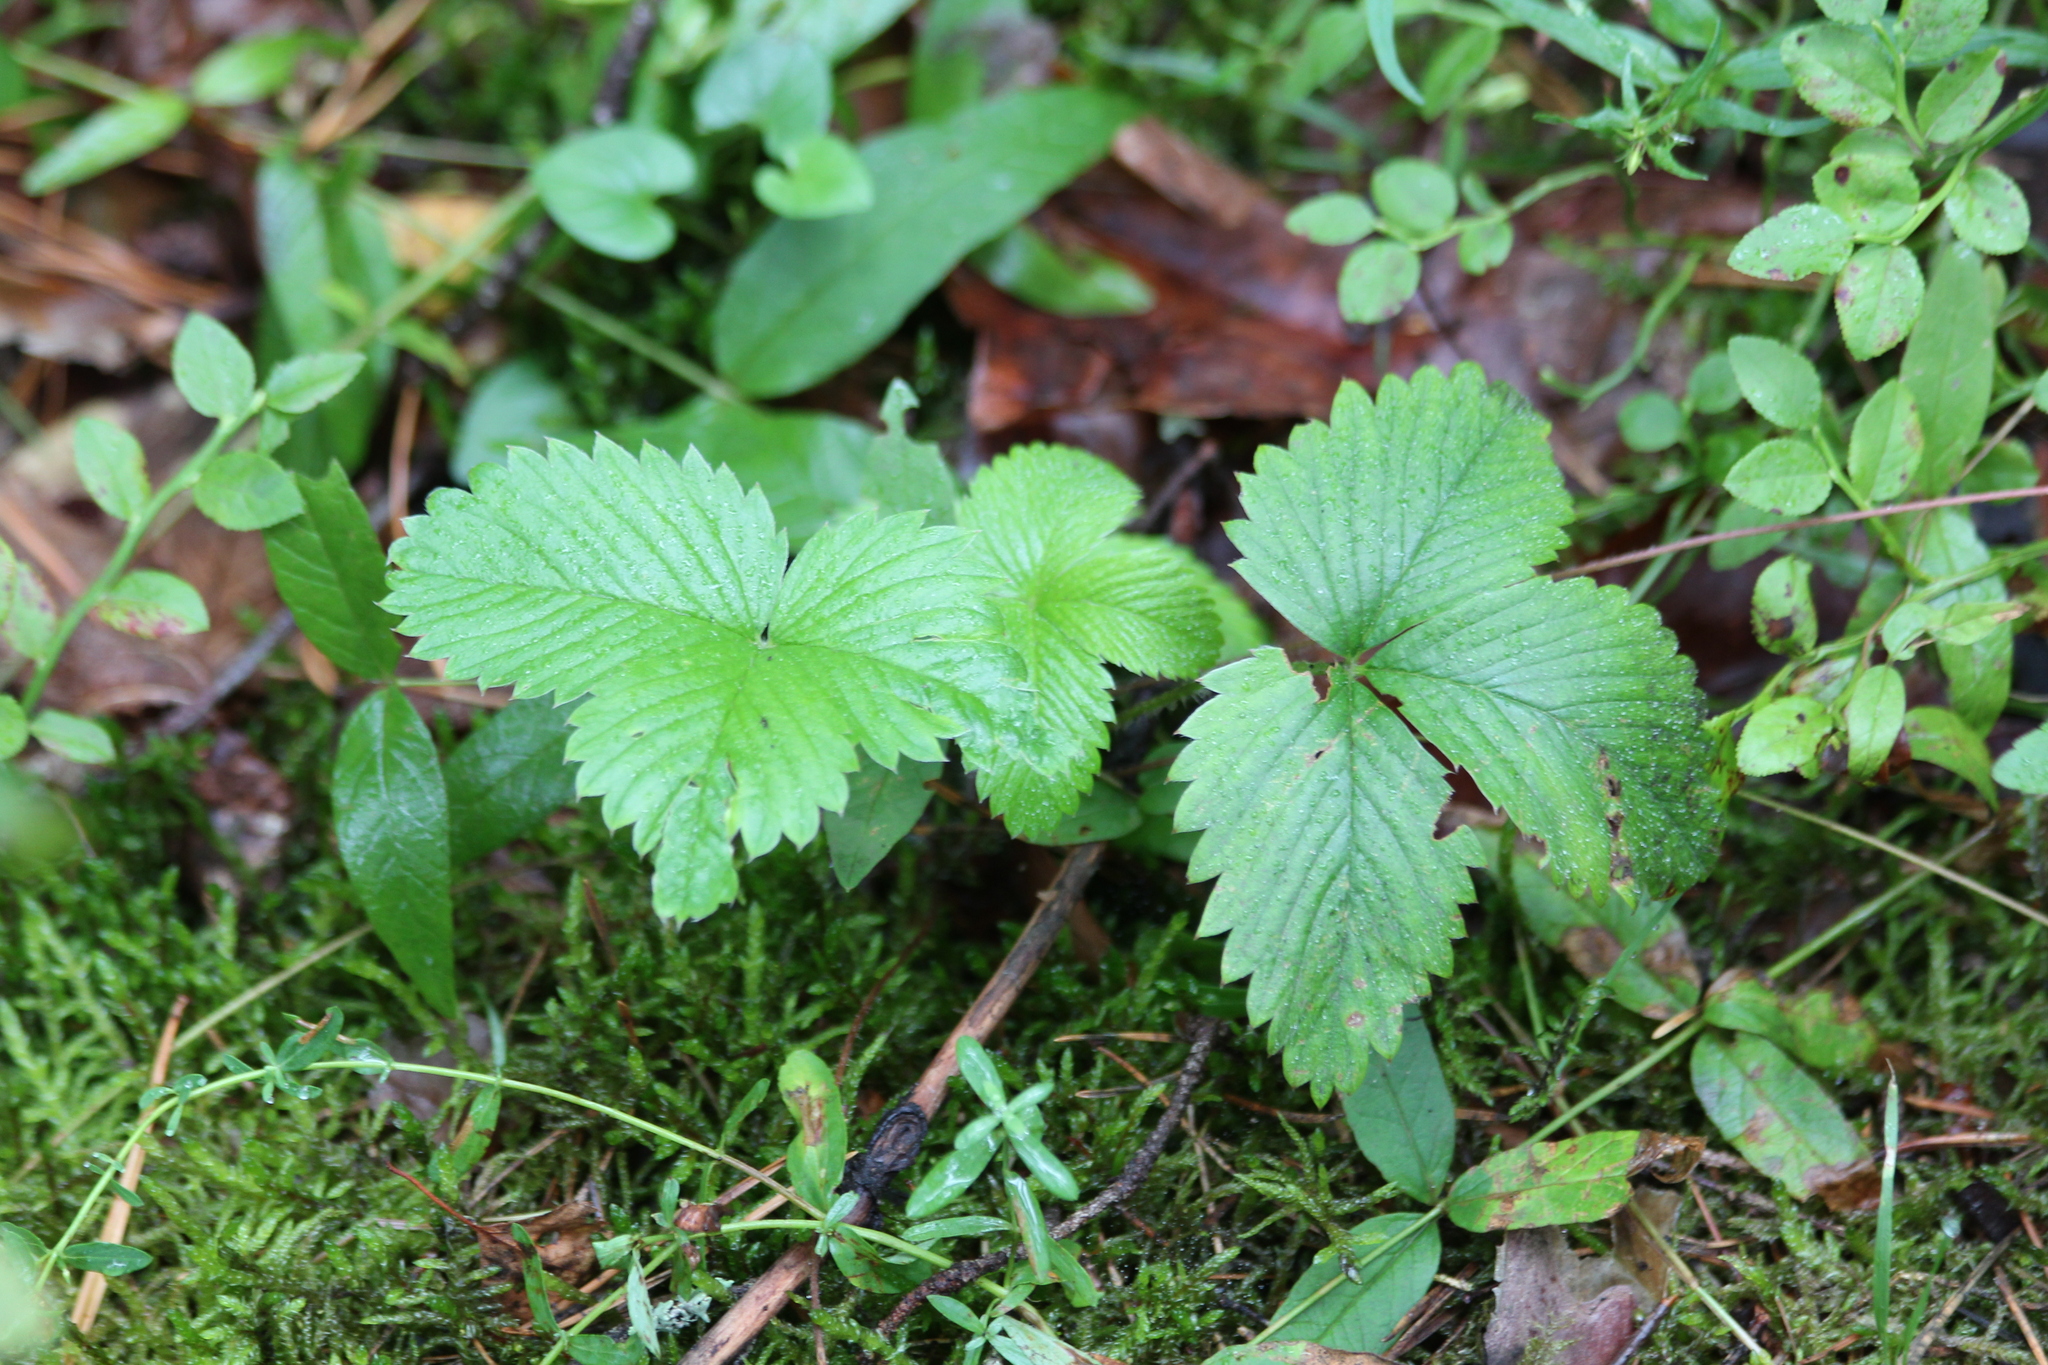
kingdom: Plantae
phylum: Tracheophyta
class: Magnoliopsida
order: Rosales
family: Rosaceae
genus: Fragaria
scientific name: Fragaria vesca
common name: Wild strawberry
